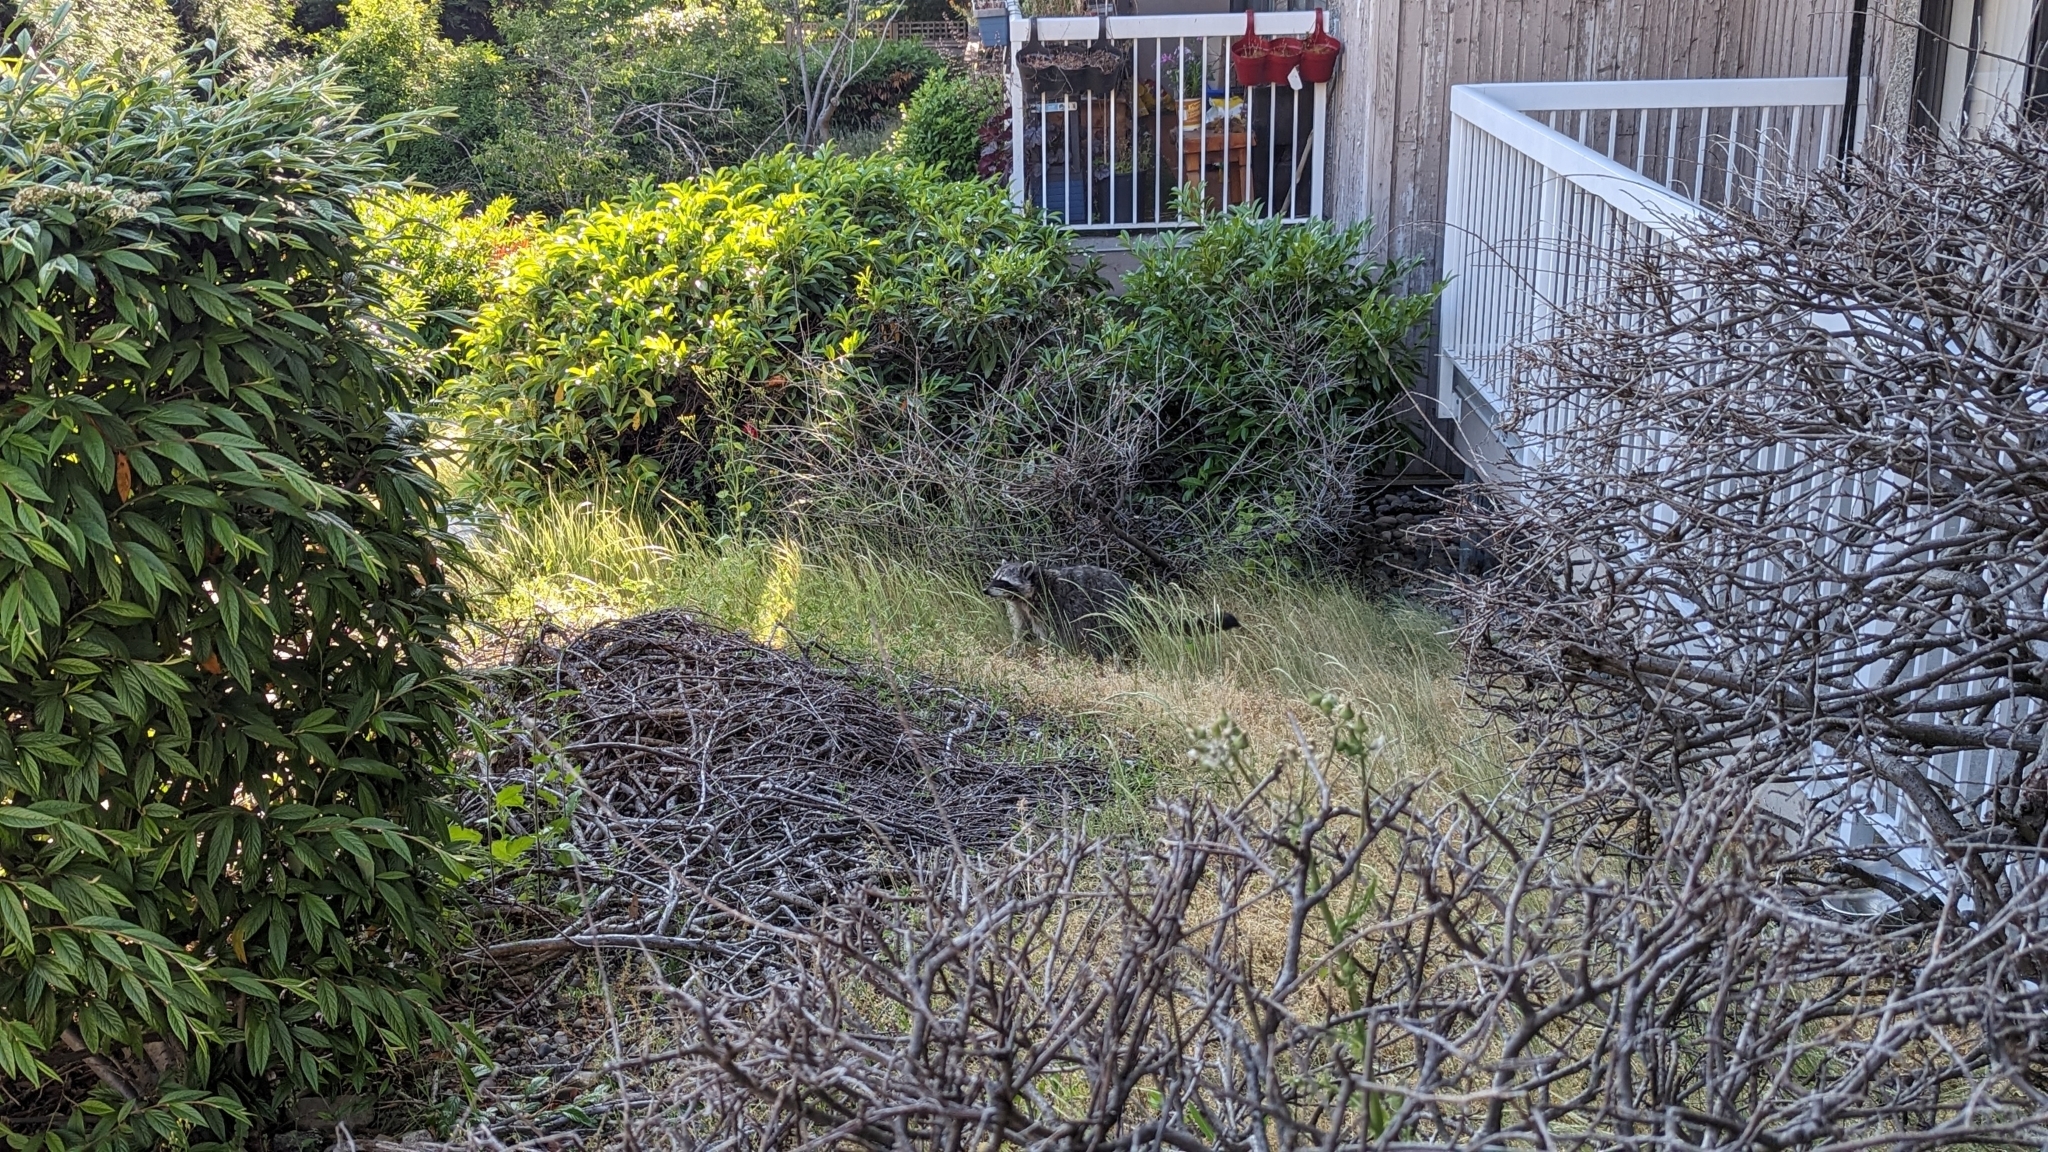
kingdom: Animalia
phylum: Chordata
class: Mammalia
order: Carnivora
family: Procyonidae
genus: Procyon
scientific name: Procyon lotor
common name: Raccoon
